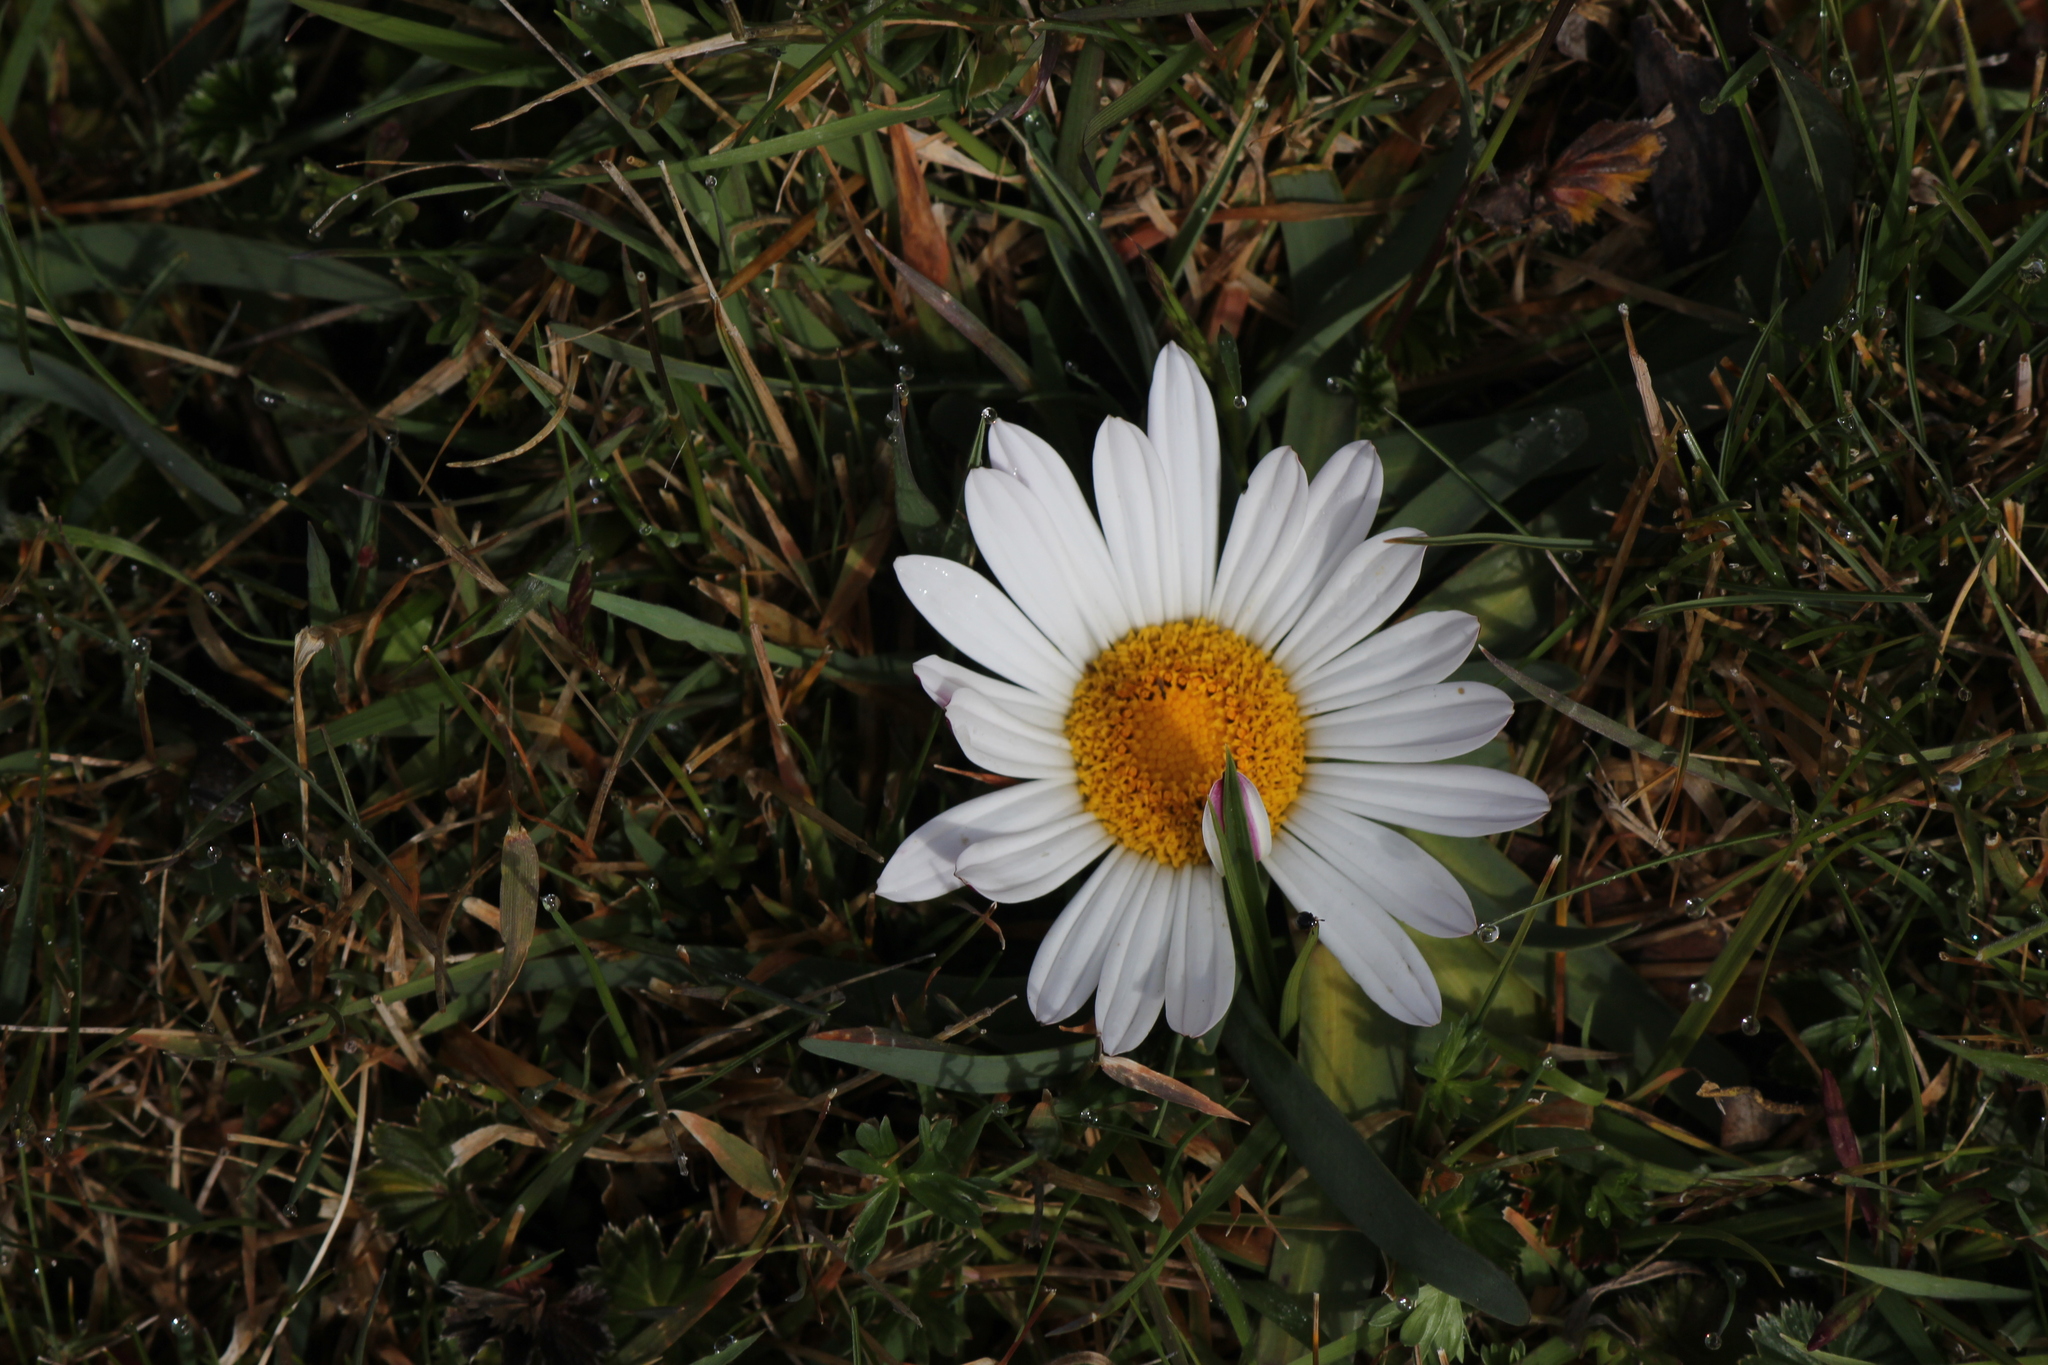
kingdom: Plantae
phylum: Tracheophyta
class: Magnoliopsida
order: Asterales
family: Asteraceae
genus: Rockhausenia
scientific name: Rockhausenia nubigena
